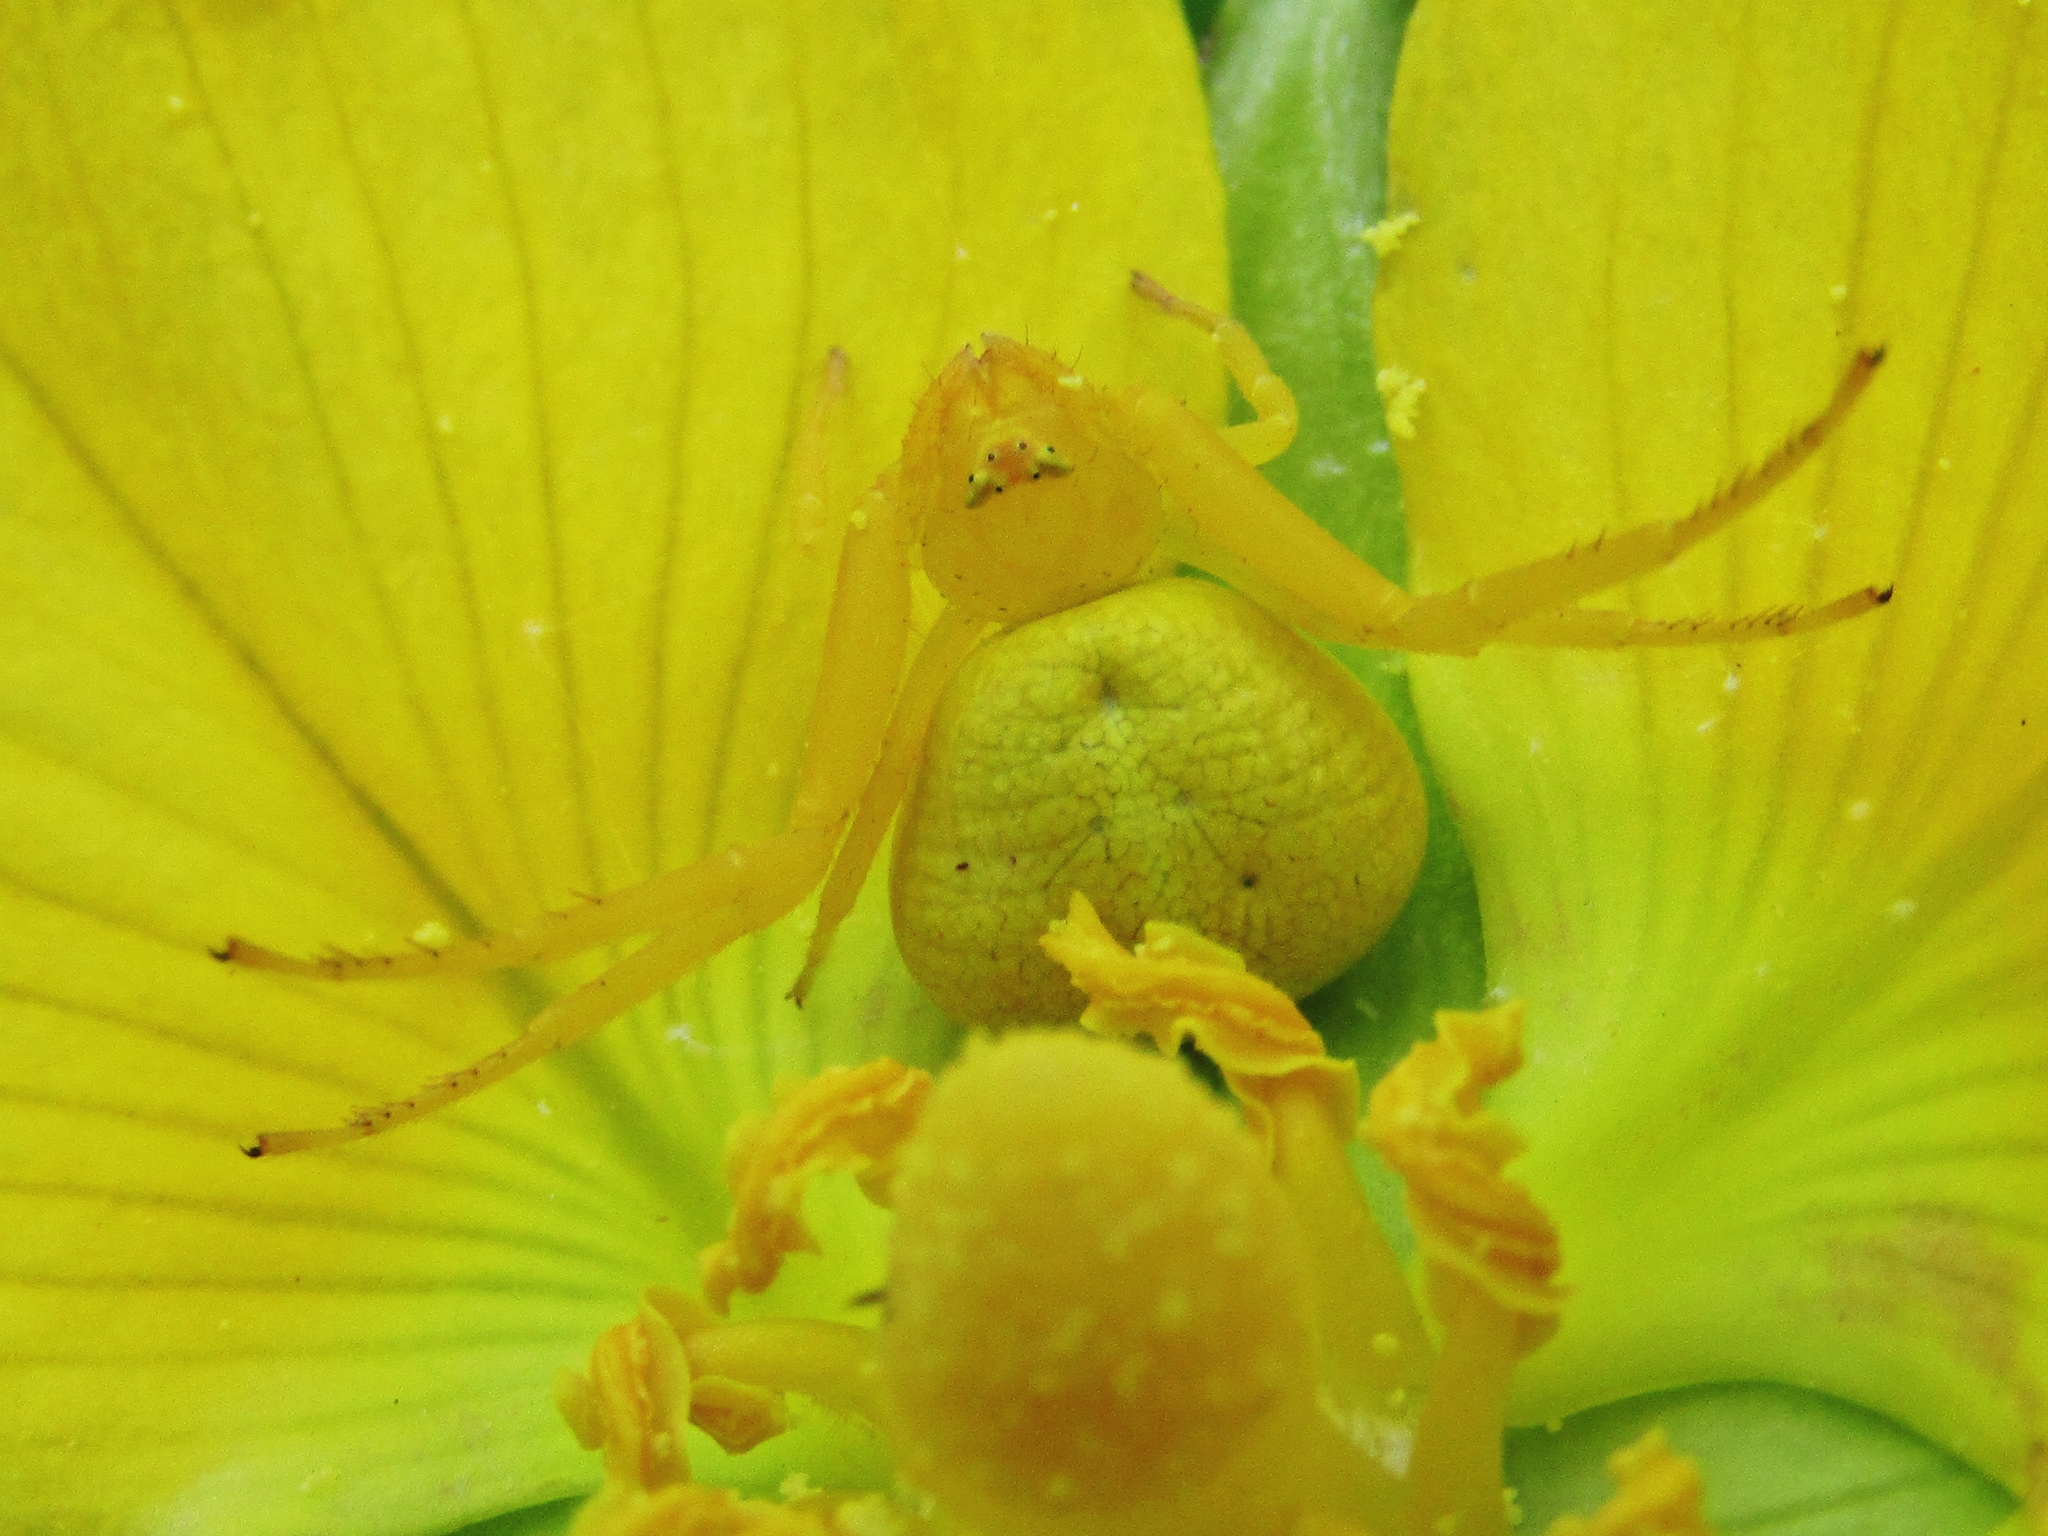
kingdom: Animalia
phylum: Arthropoda
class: Arachnida
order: Araneae
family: Thomisidae
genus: Misumenops
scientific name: Misumenops
